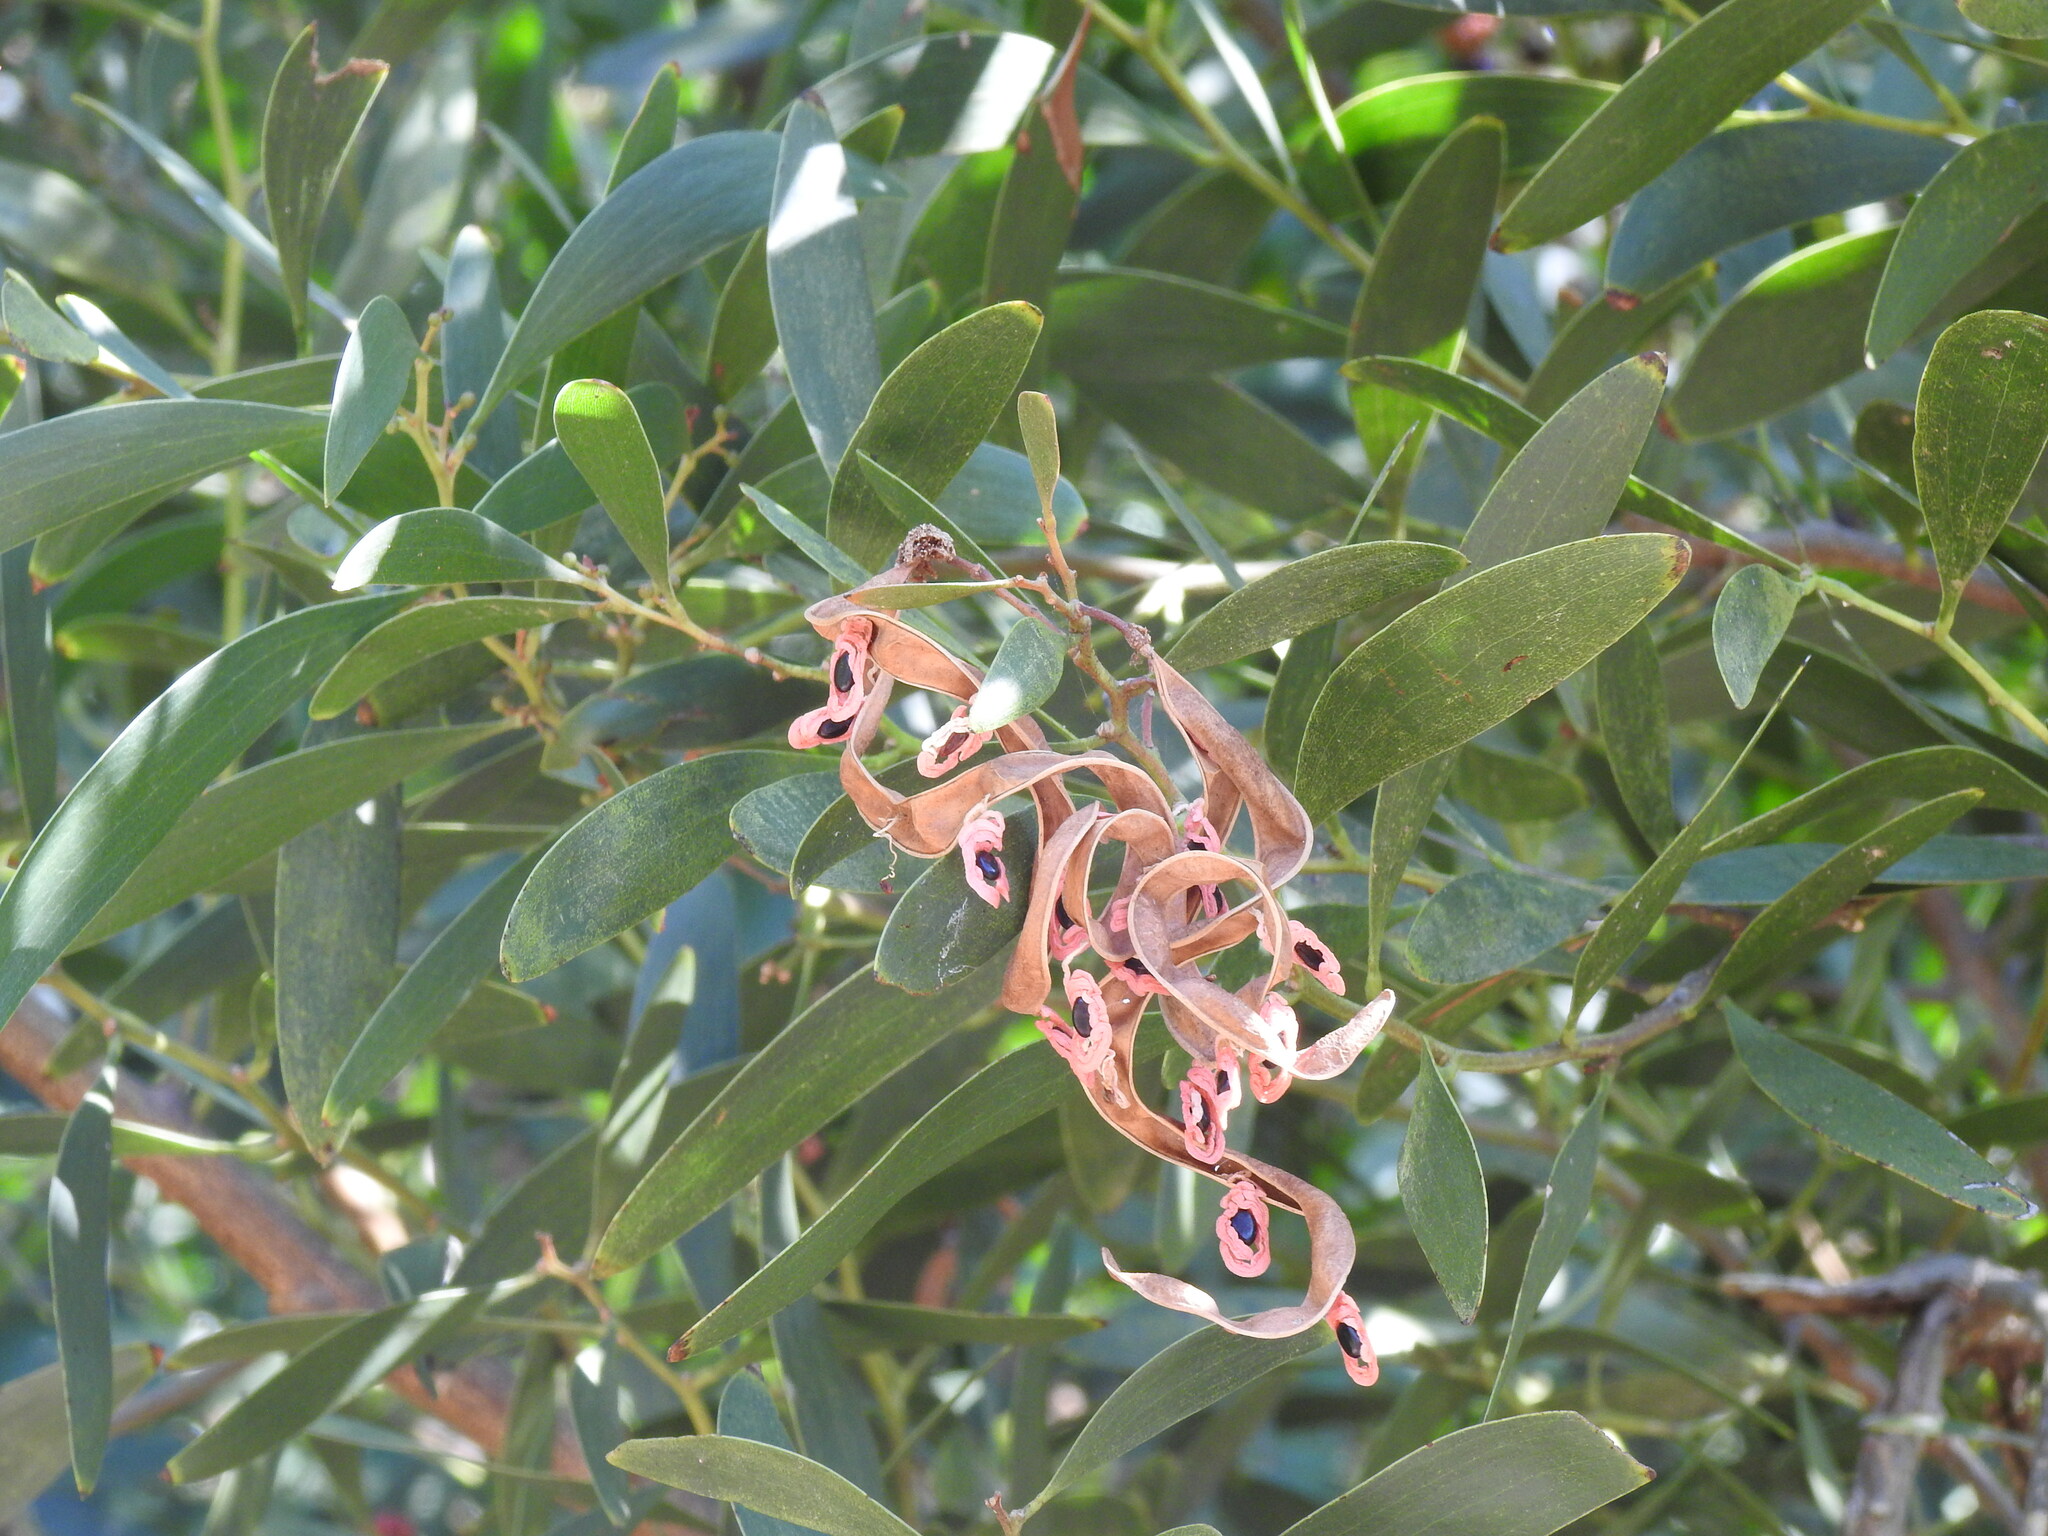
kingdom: Plantae
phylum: Tracheophyta
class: Magnoliopsida
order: Fabales
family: Fabaceae
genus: Acacia
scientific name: Acacia melanoxylon
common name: Blackwood
